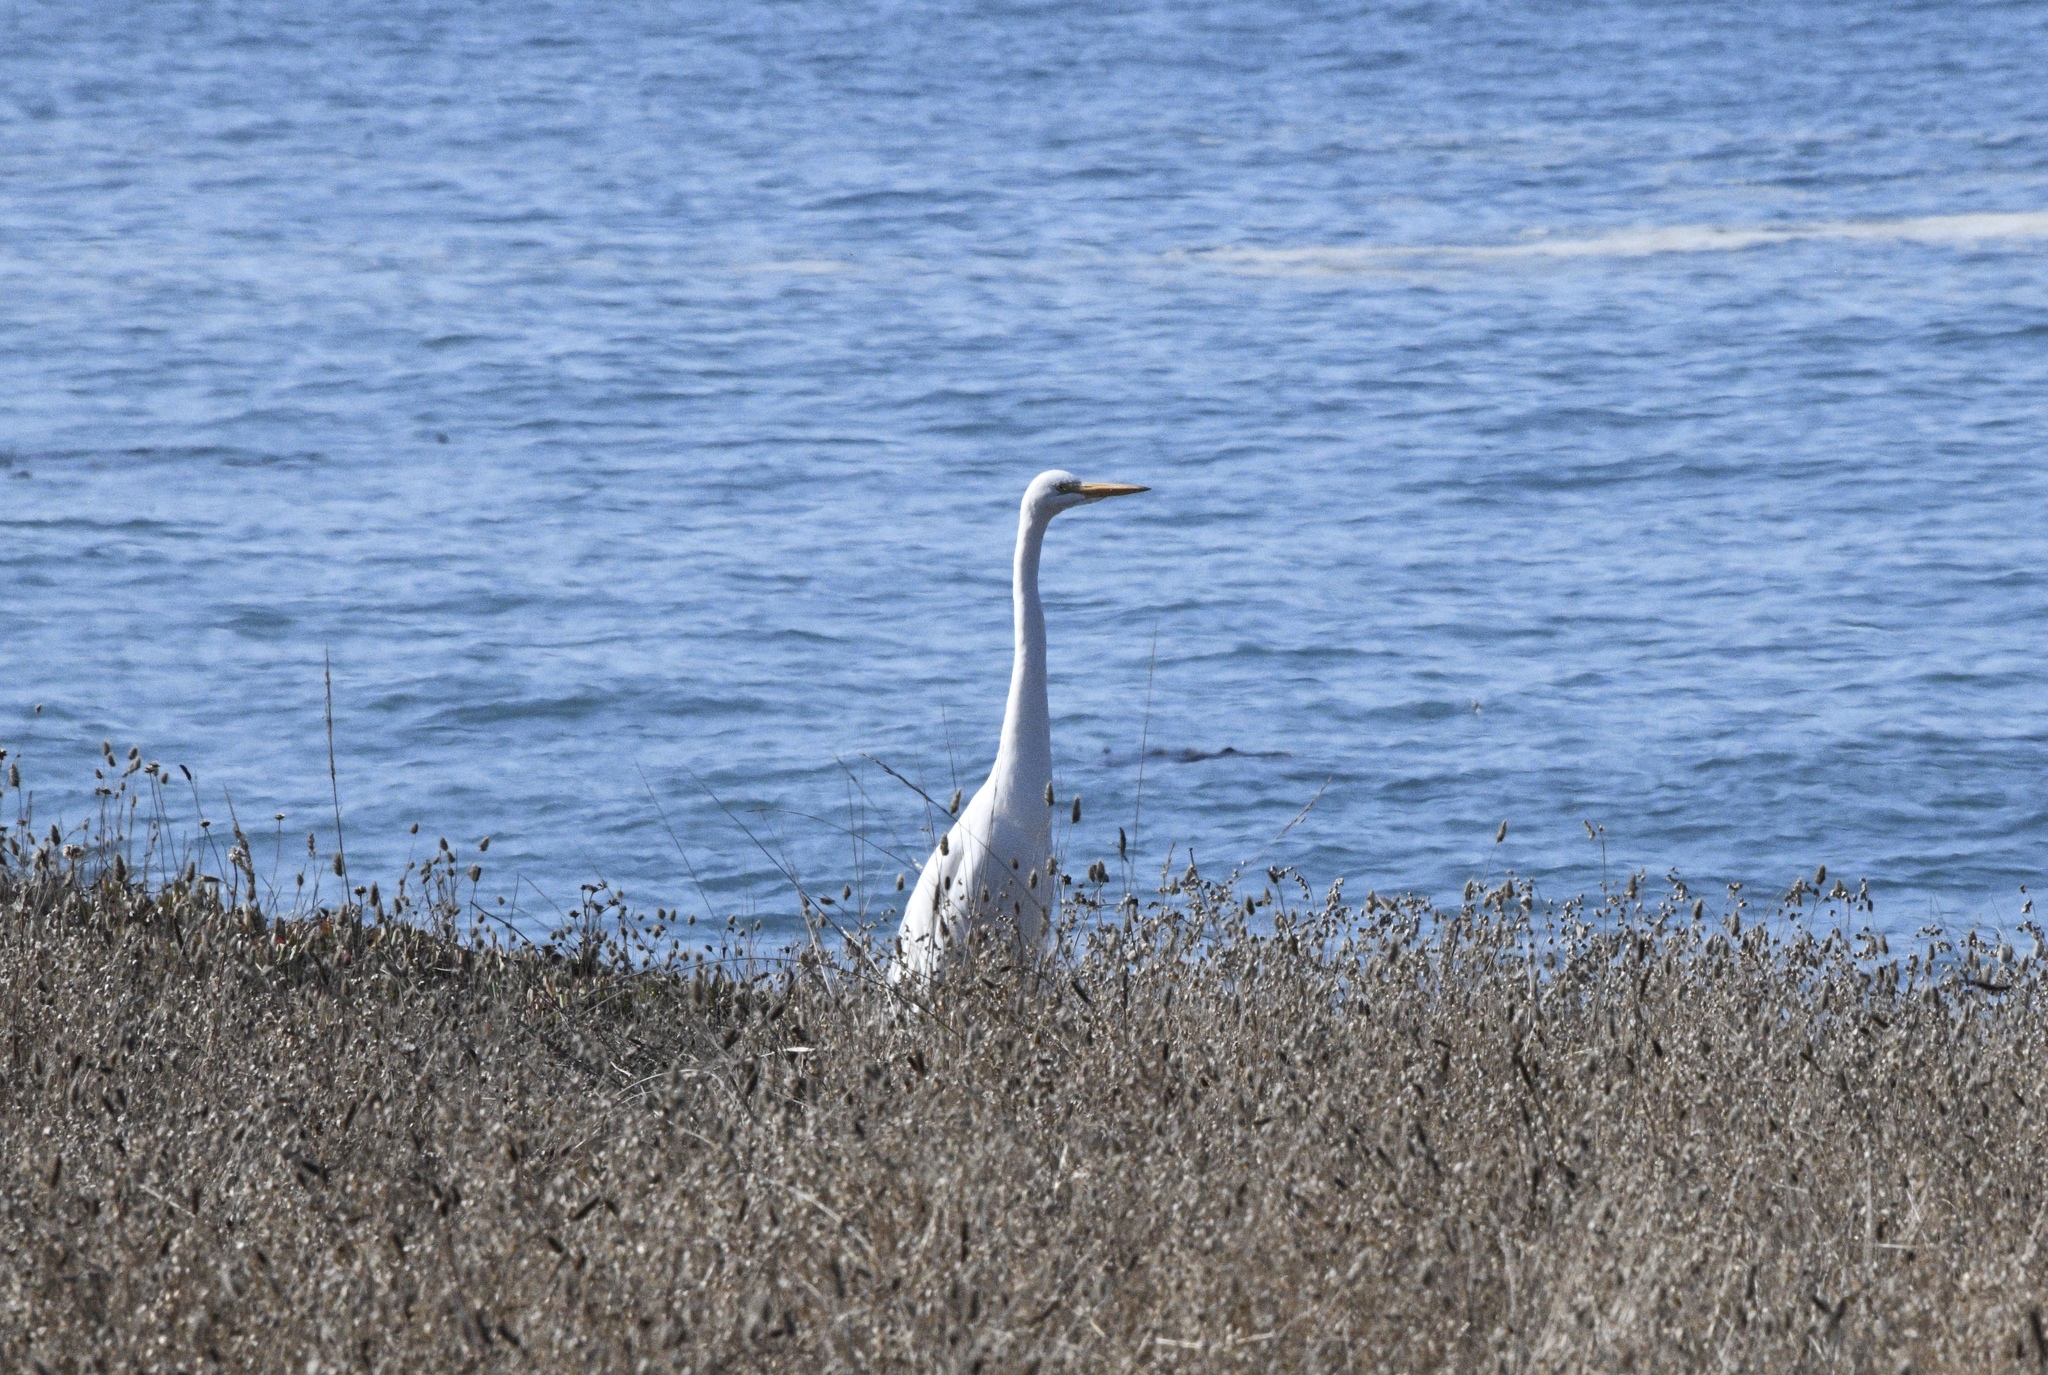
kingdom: Animalia
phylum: Chordata
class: Aves
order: Pelecaniformes
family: Ardeidae
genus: Ardea
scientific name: Ardea alba
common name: Great egret
